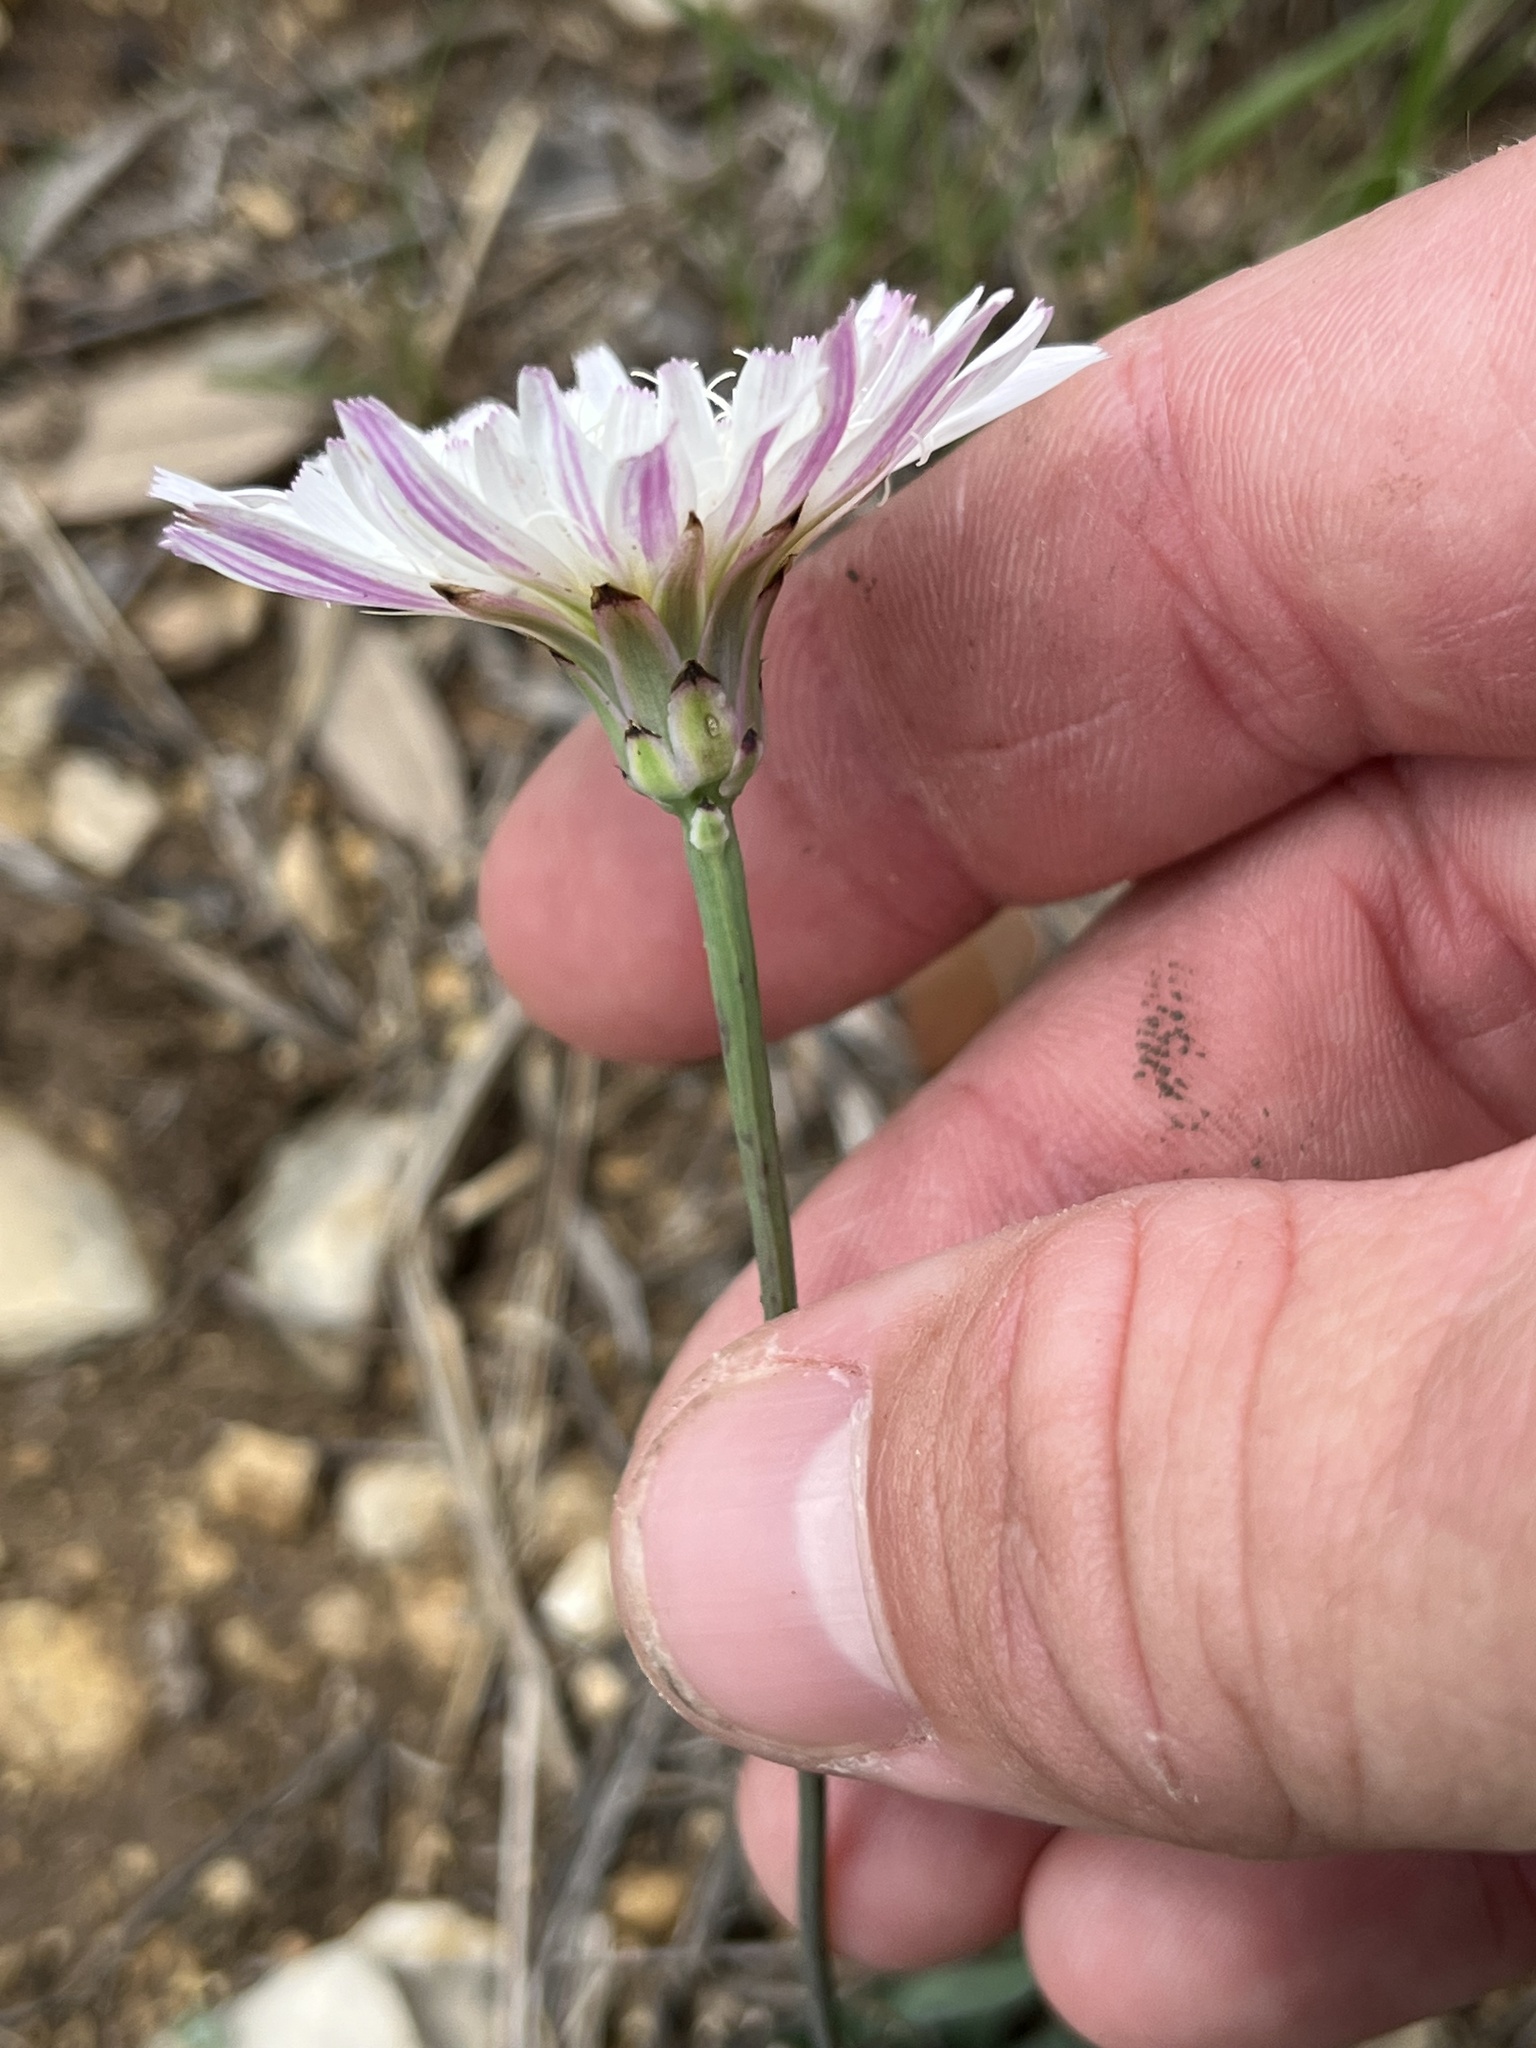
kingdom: Plantae
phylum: Tracheophyta
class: Magnoliopsida
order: Asterales
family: Asteraceae
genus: Pinaropappus
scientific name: Pinaropappus roseus
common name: Rock-lettuce
